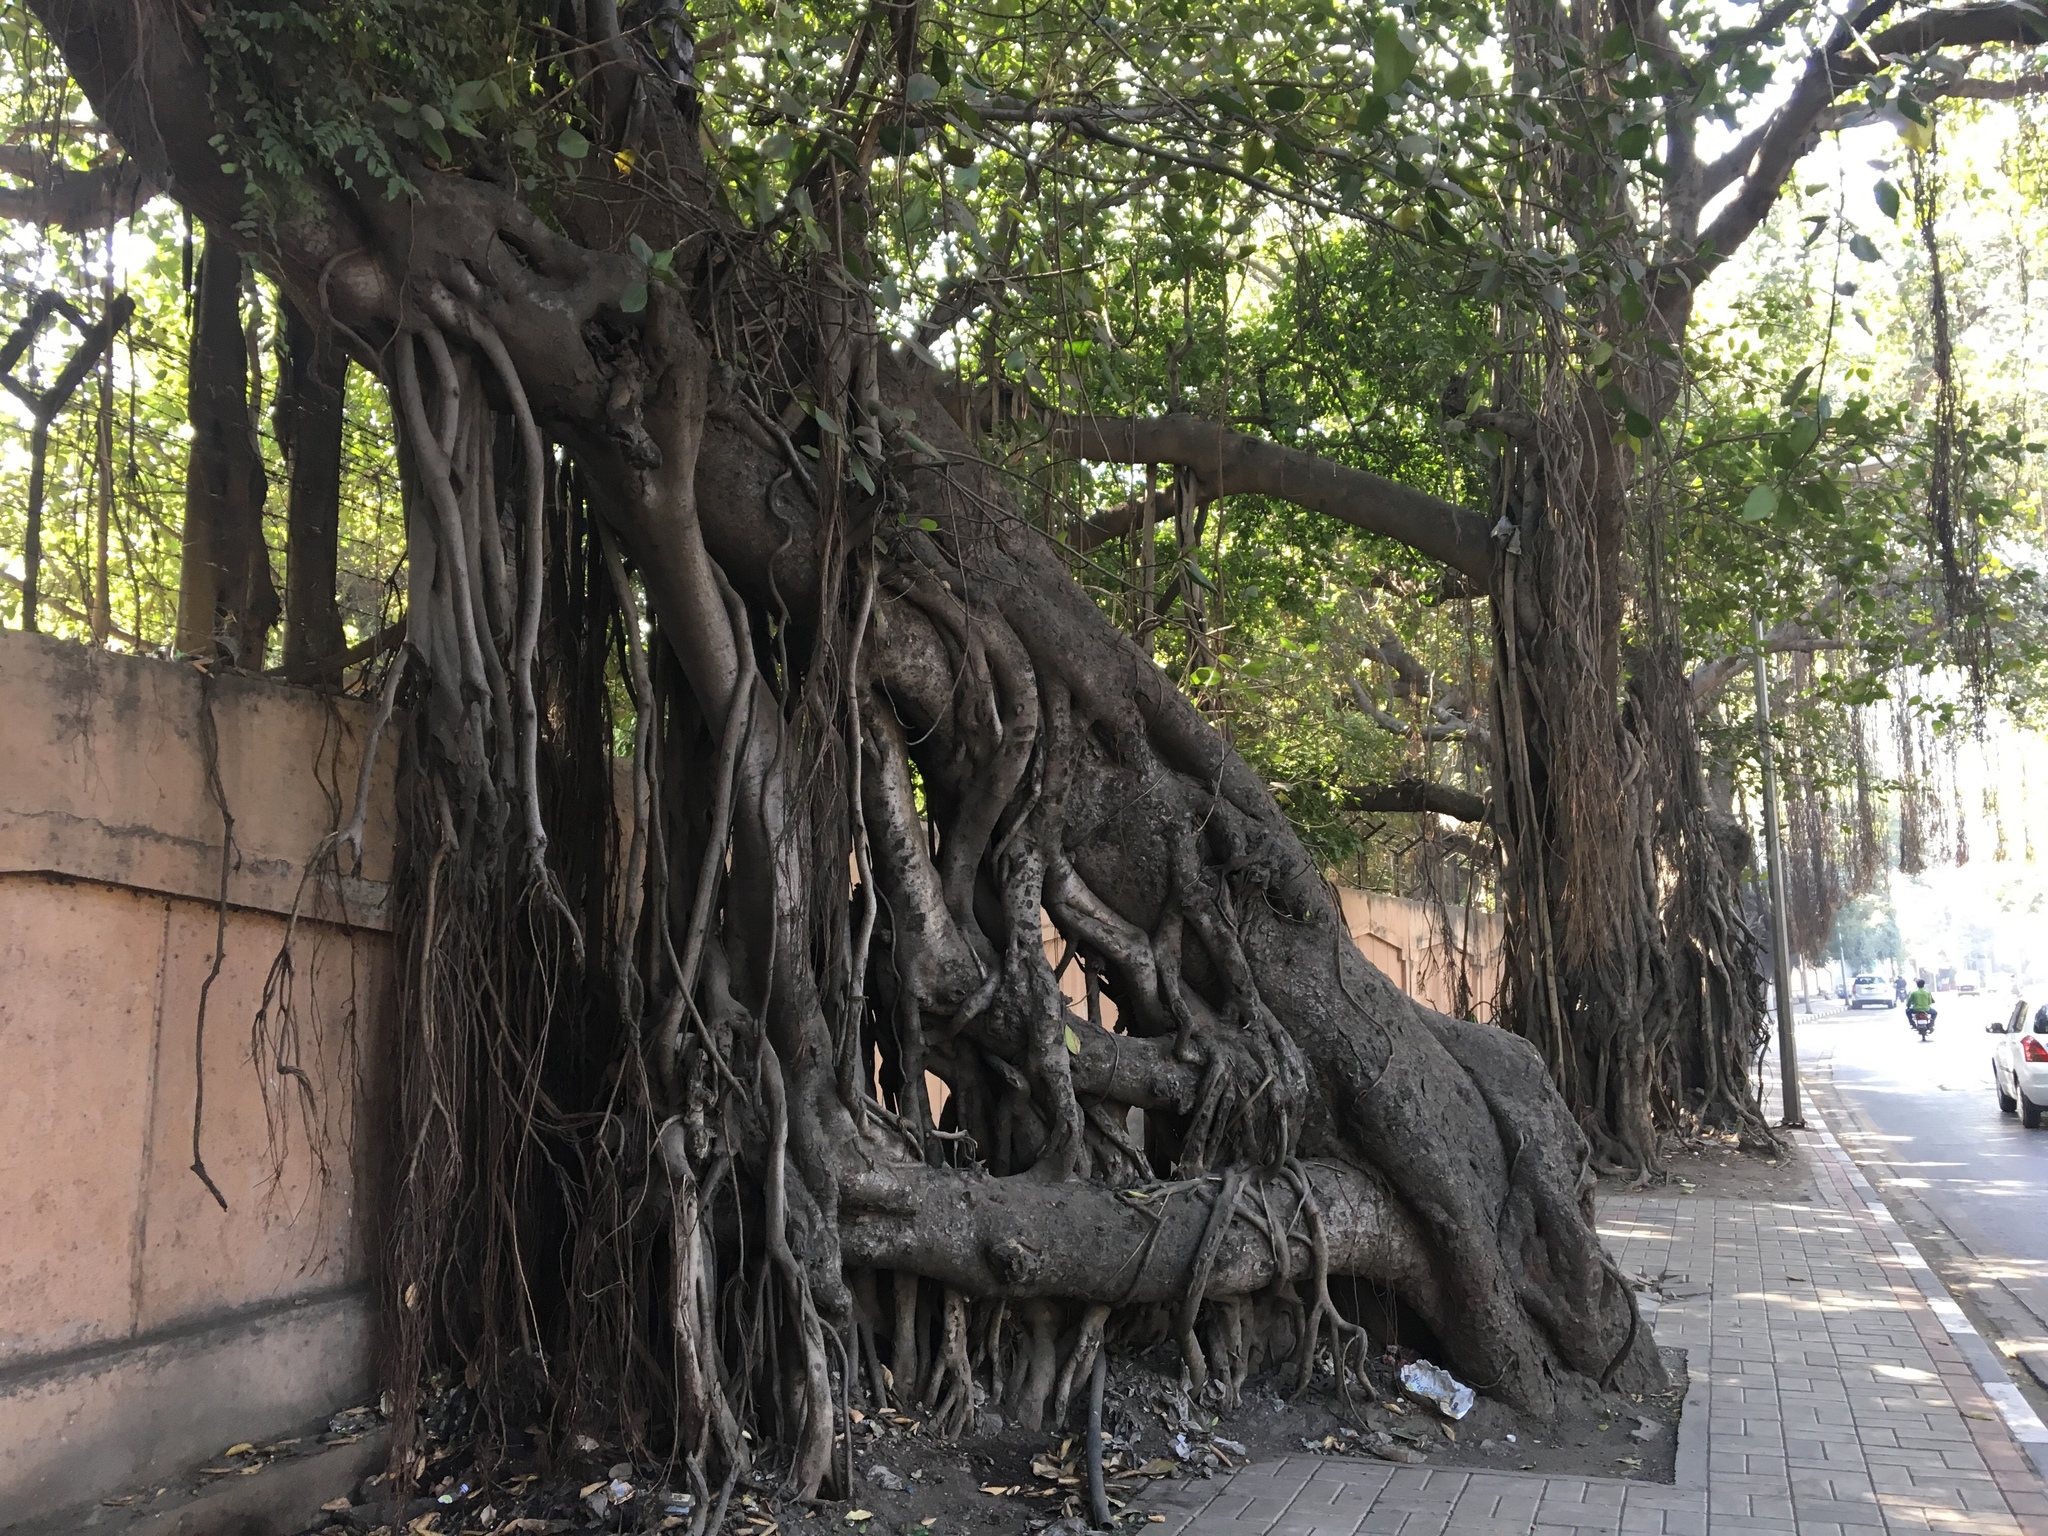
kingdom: Plantae
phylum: Tracheophyta
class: Magnoliopsida
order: Rosales
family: Moraceae
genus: Ficus
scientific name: Ficus benghalensis
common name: Indian banyan
